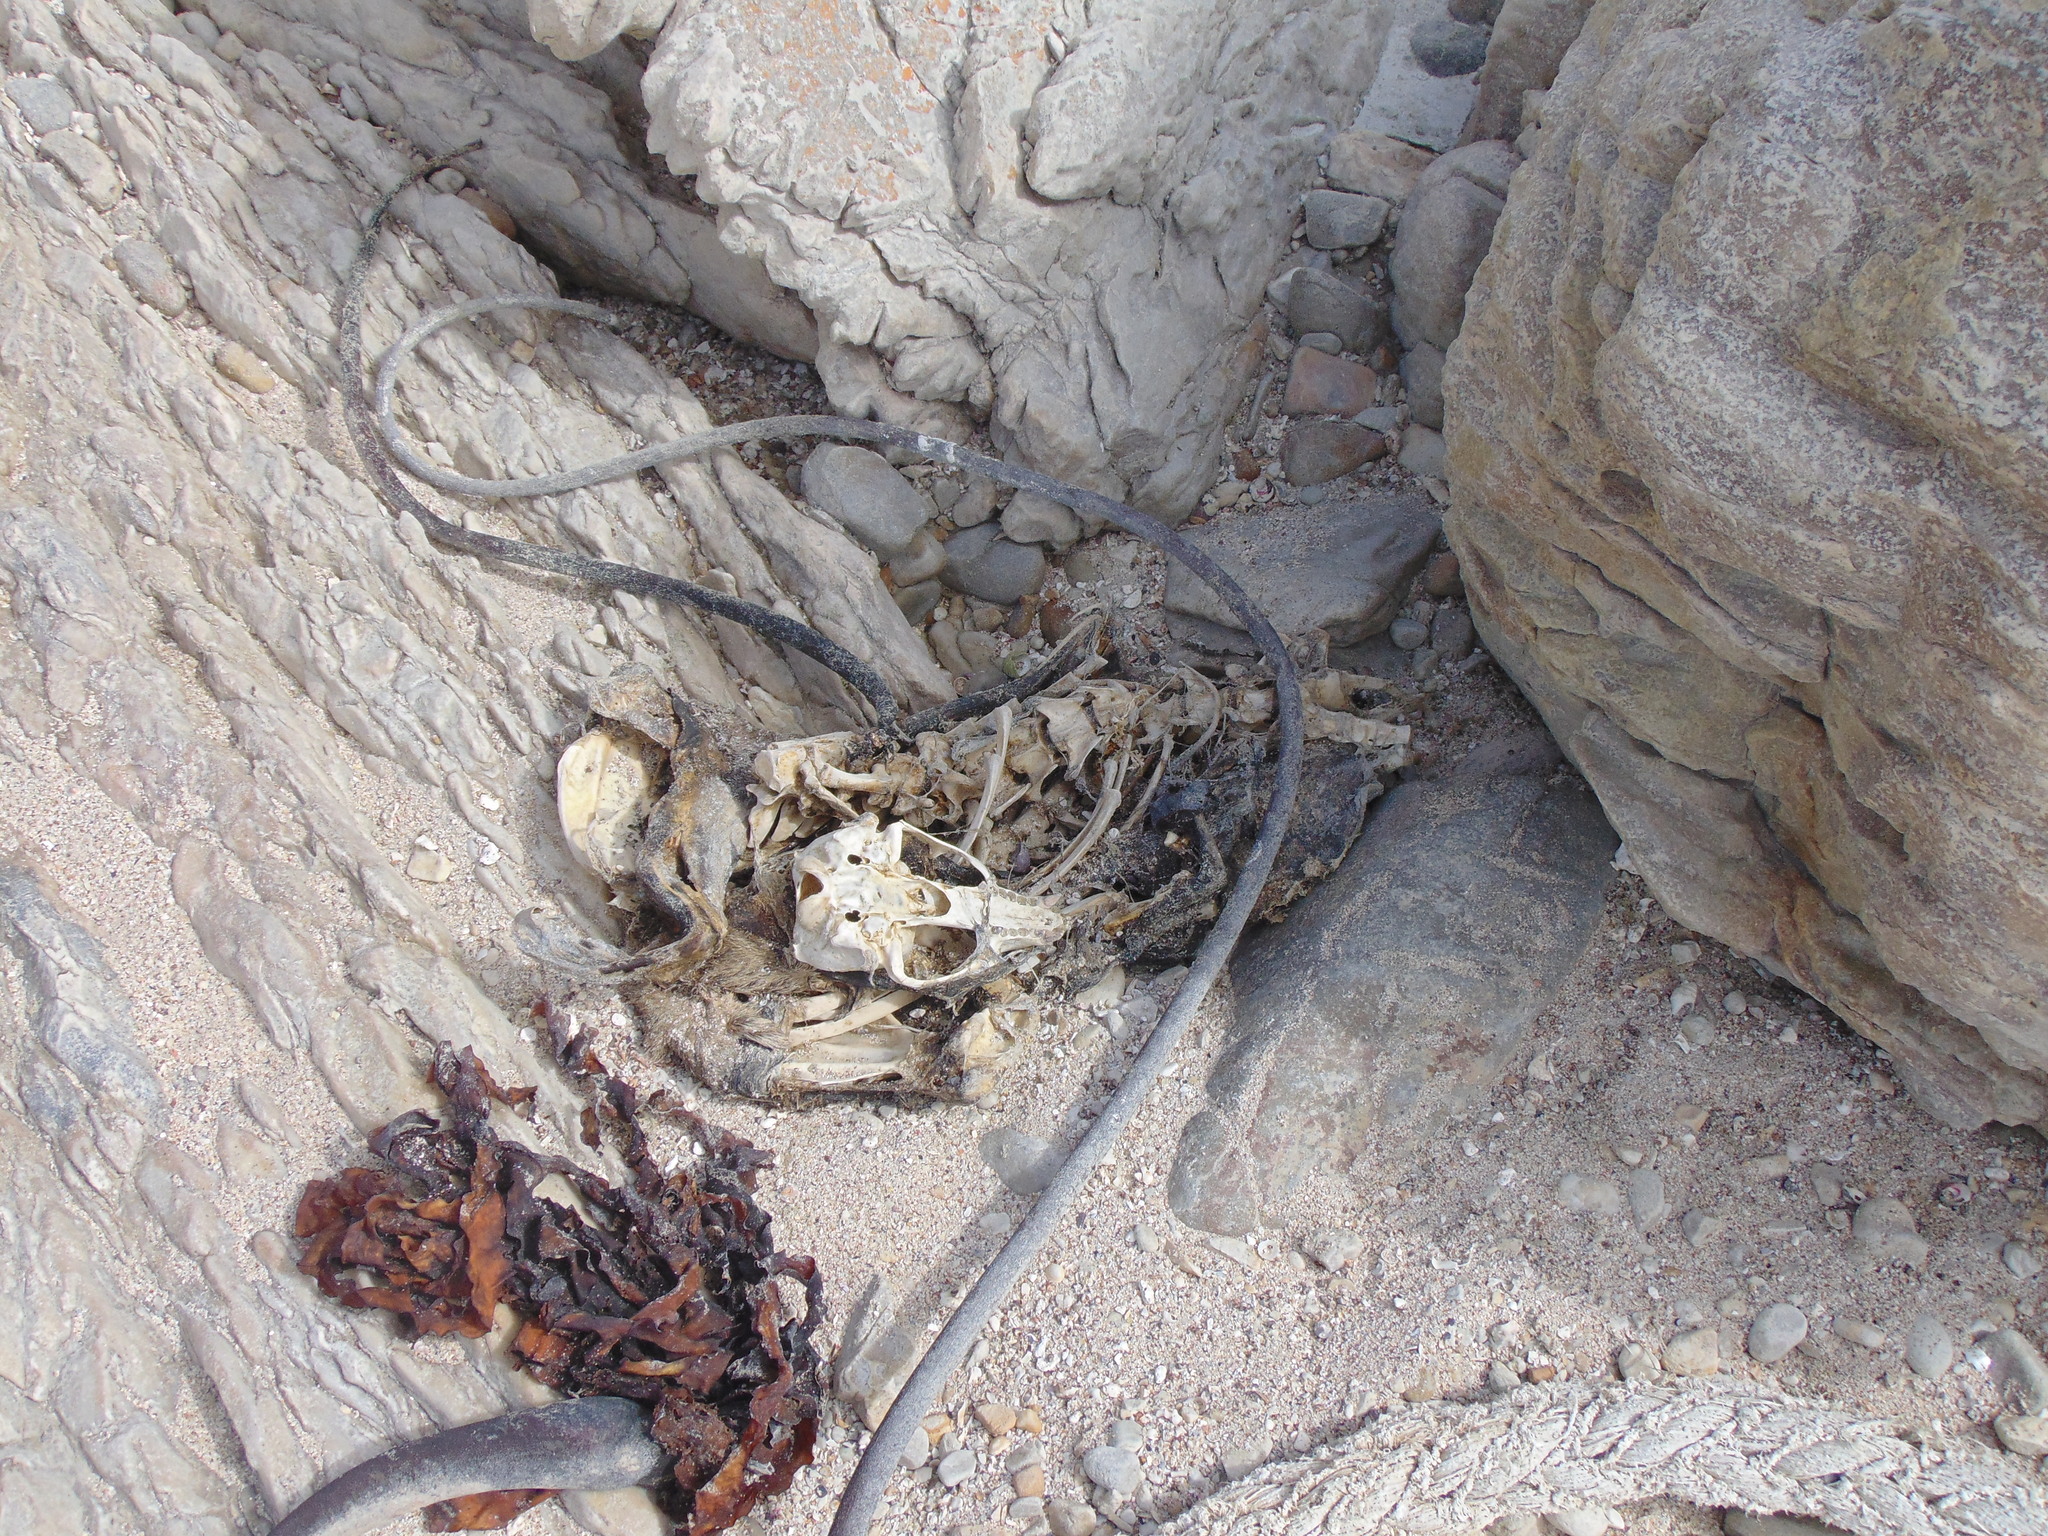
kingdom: Animalia
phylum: Chordata
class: Mammalia
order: Carnivora
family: Otariidae
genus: Arctocephalus
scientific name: Arctocephalus pusillus
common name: Brown fur seal
